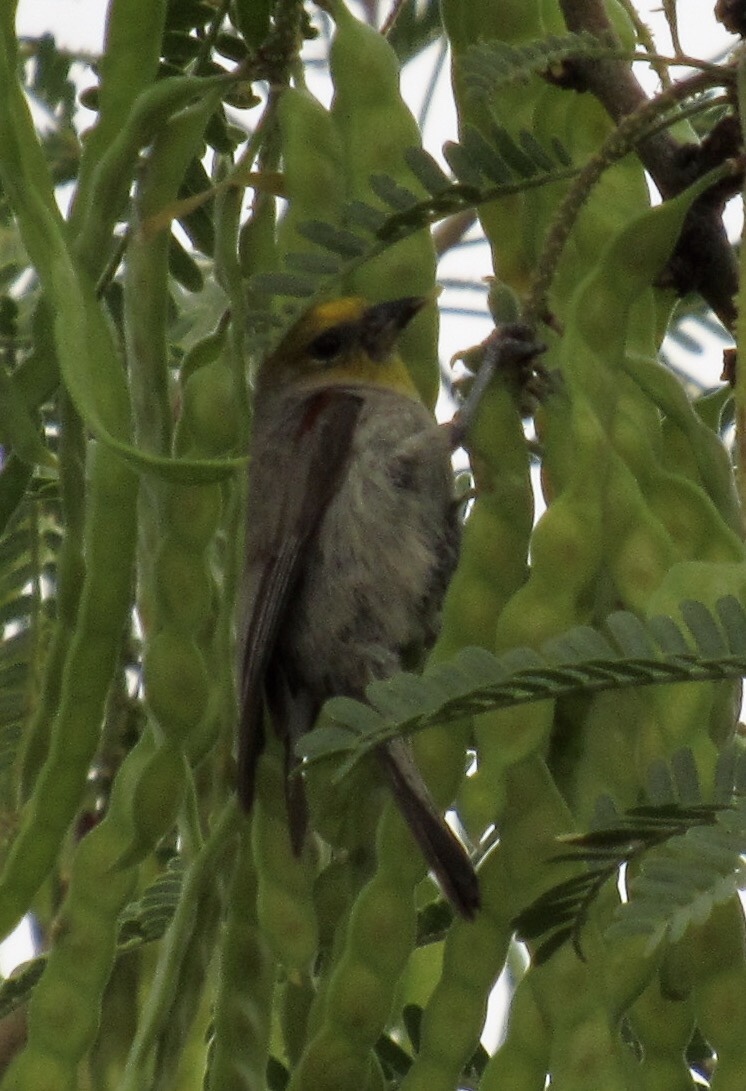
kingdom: Animalia
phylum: Chordata
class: Aves
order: Passeriformes
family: Remizidae
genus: Auriparus
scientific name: Auriparus flaviceps
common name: Verdin
